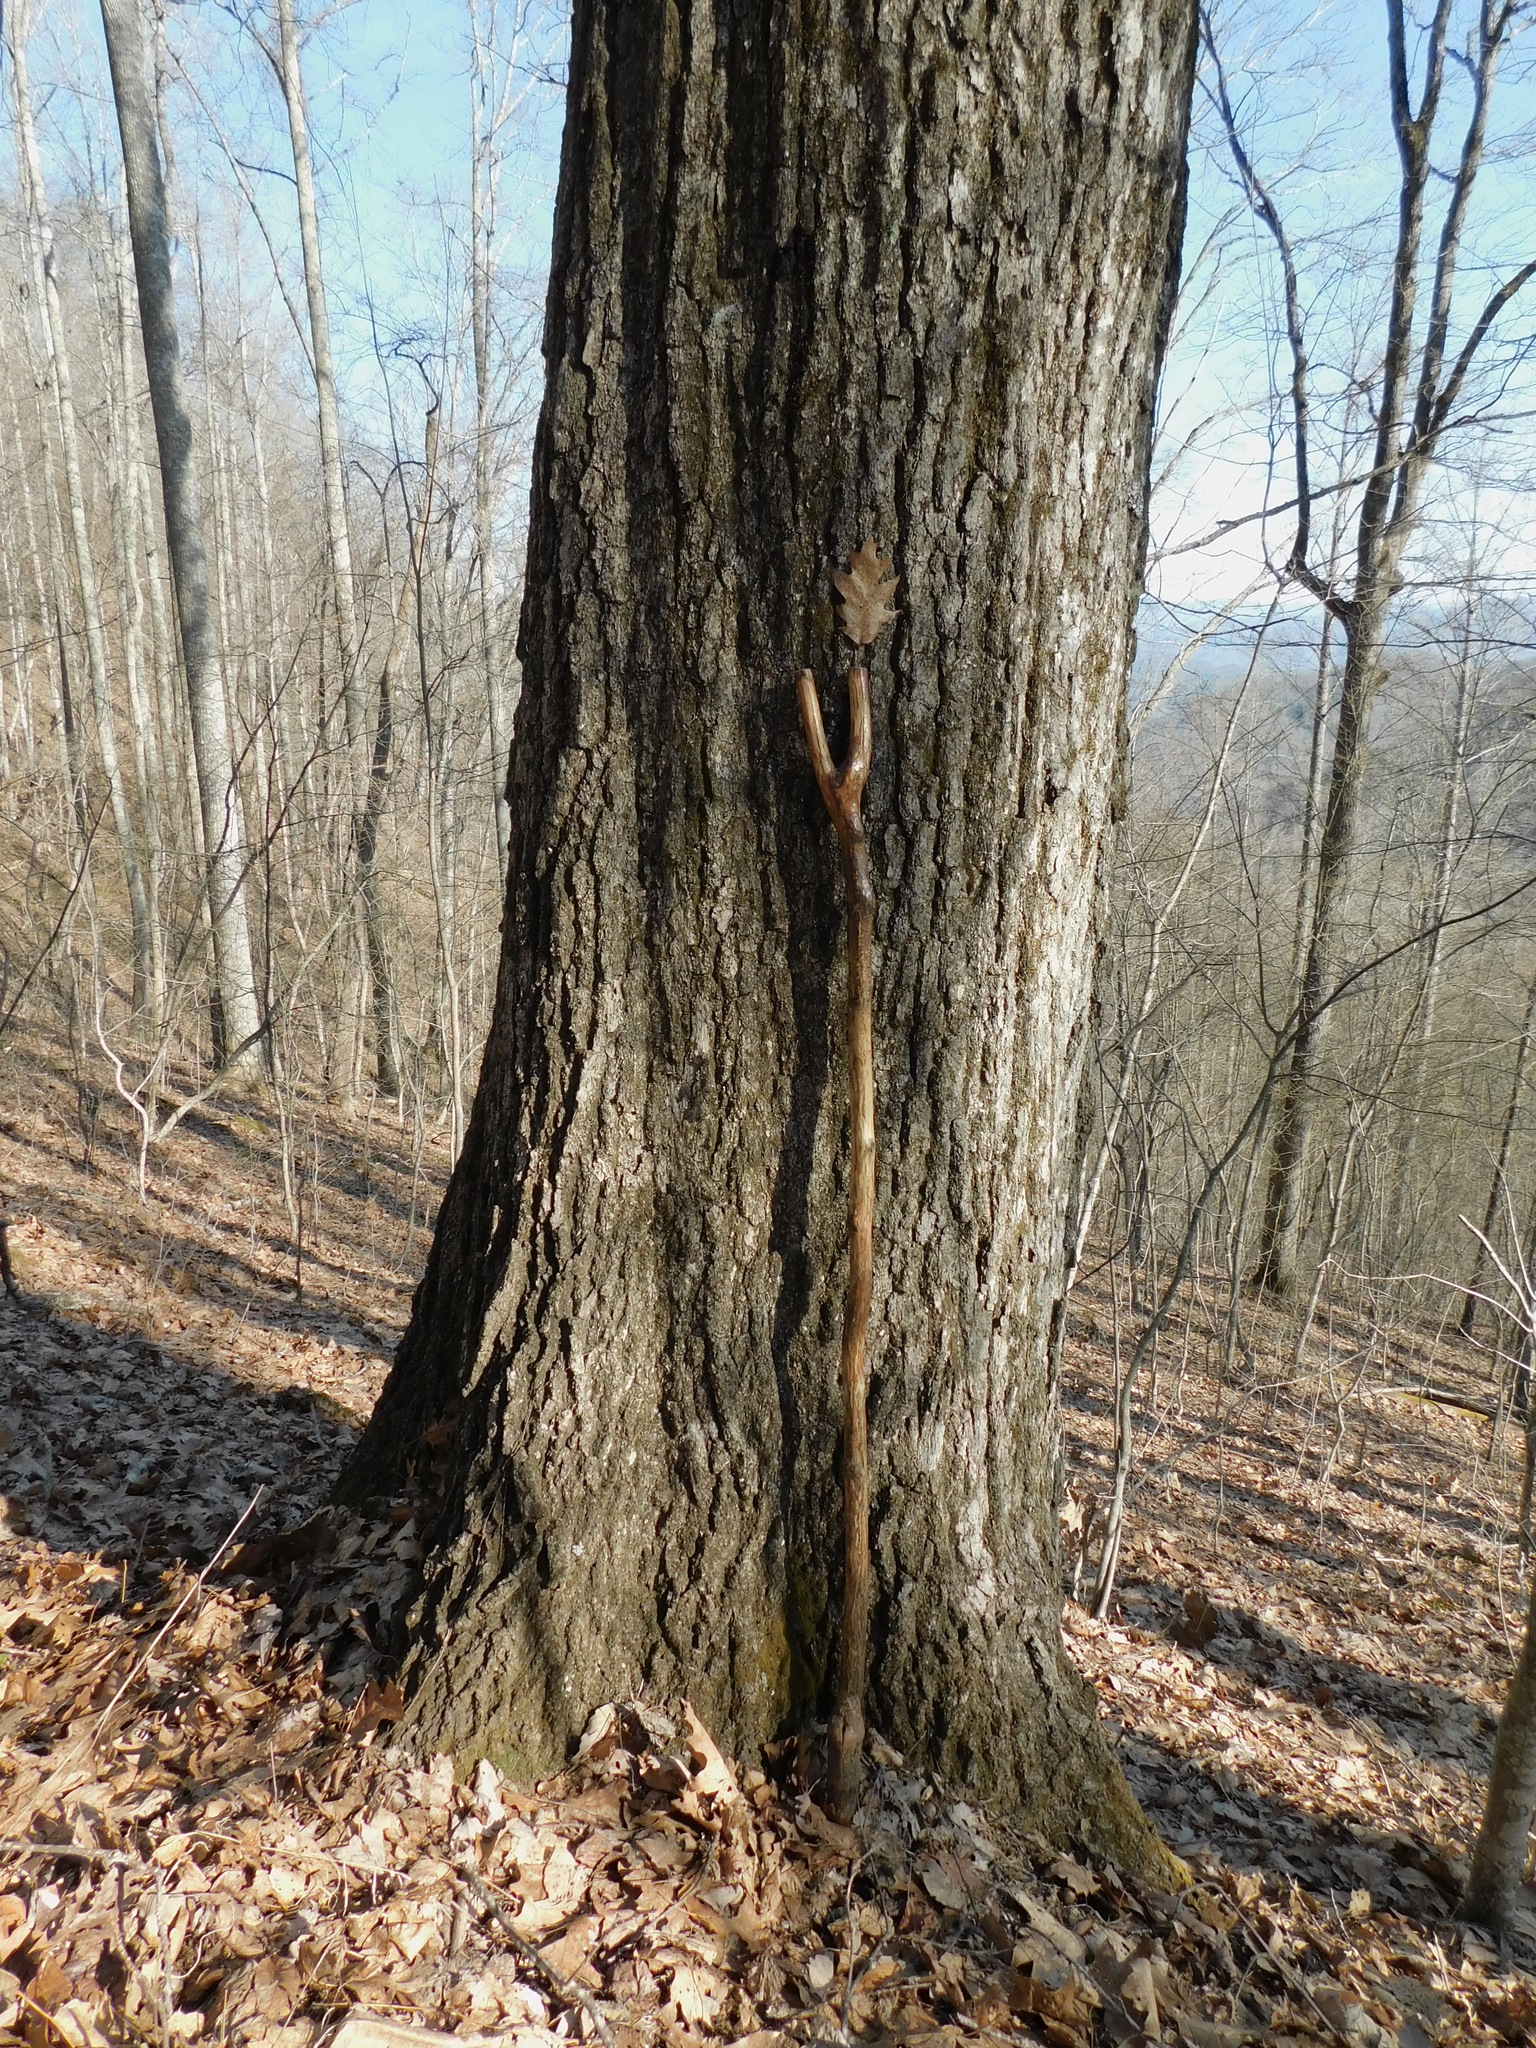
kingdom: Plantae
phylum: Tracheophyta
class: Magnoliopsida
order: Fagales
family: Fagaceae
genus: Quercus
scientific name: Quercus rubra
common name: Red oak
